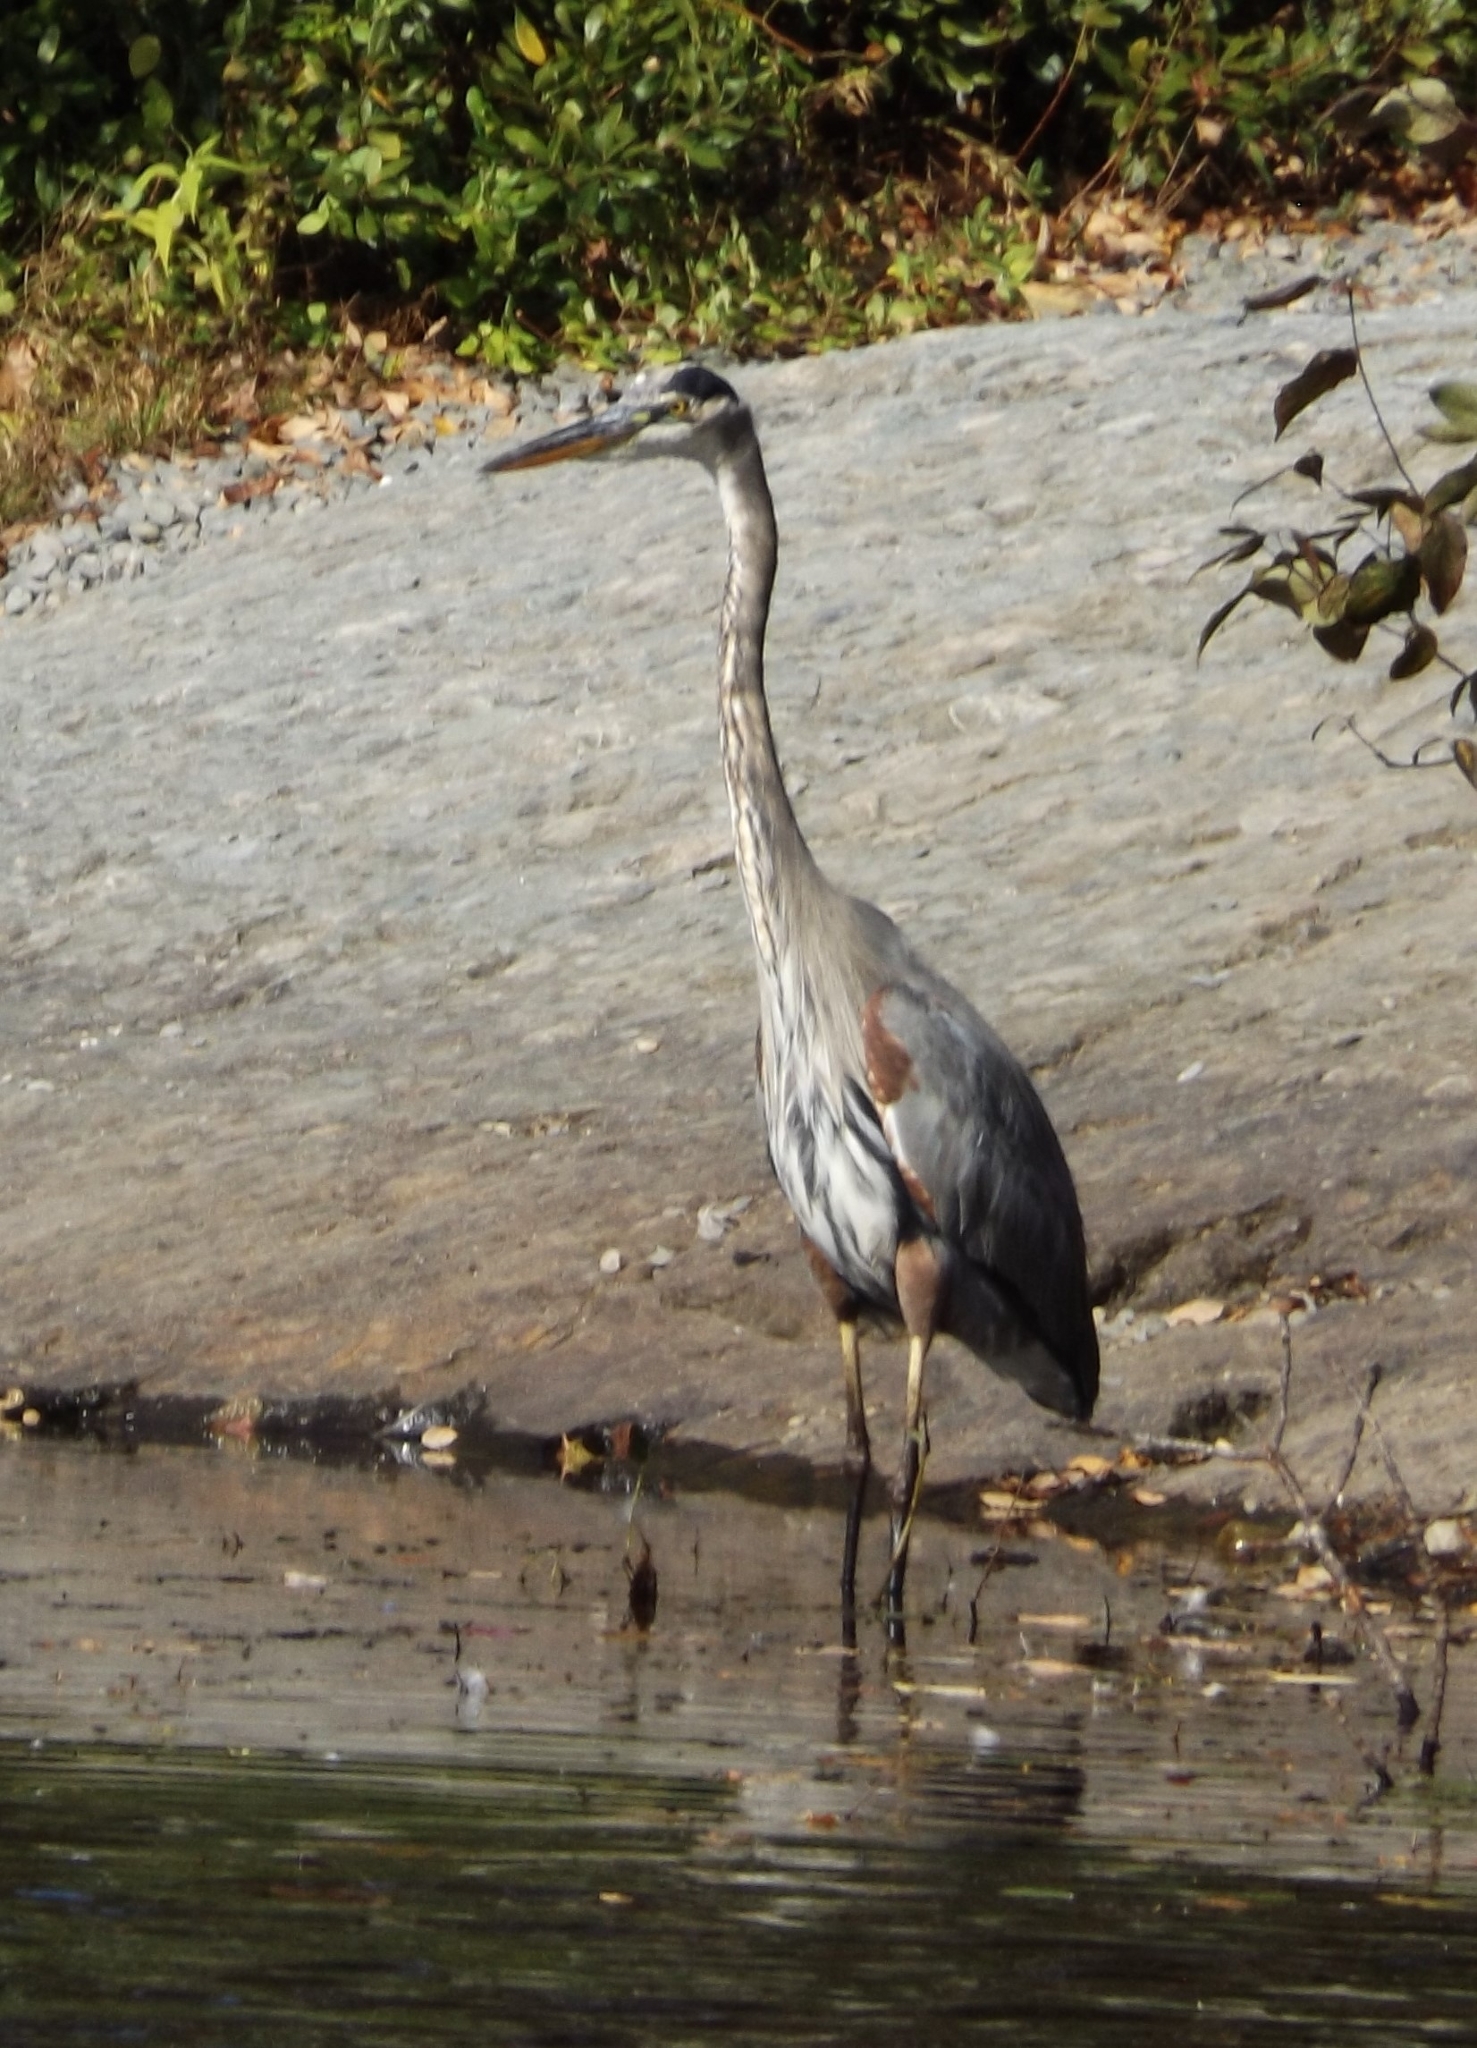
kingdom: Animalia
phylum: Chordata
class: Aves
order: Pelecaniformes
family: Ardeidae
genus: Ardea
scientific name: Ardea herodias
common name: Great blue heron
